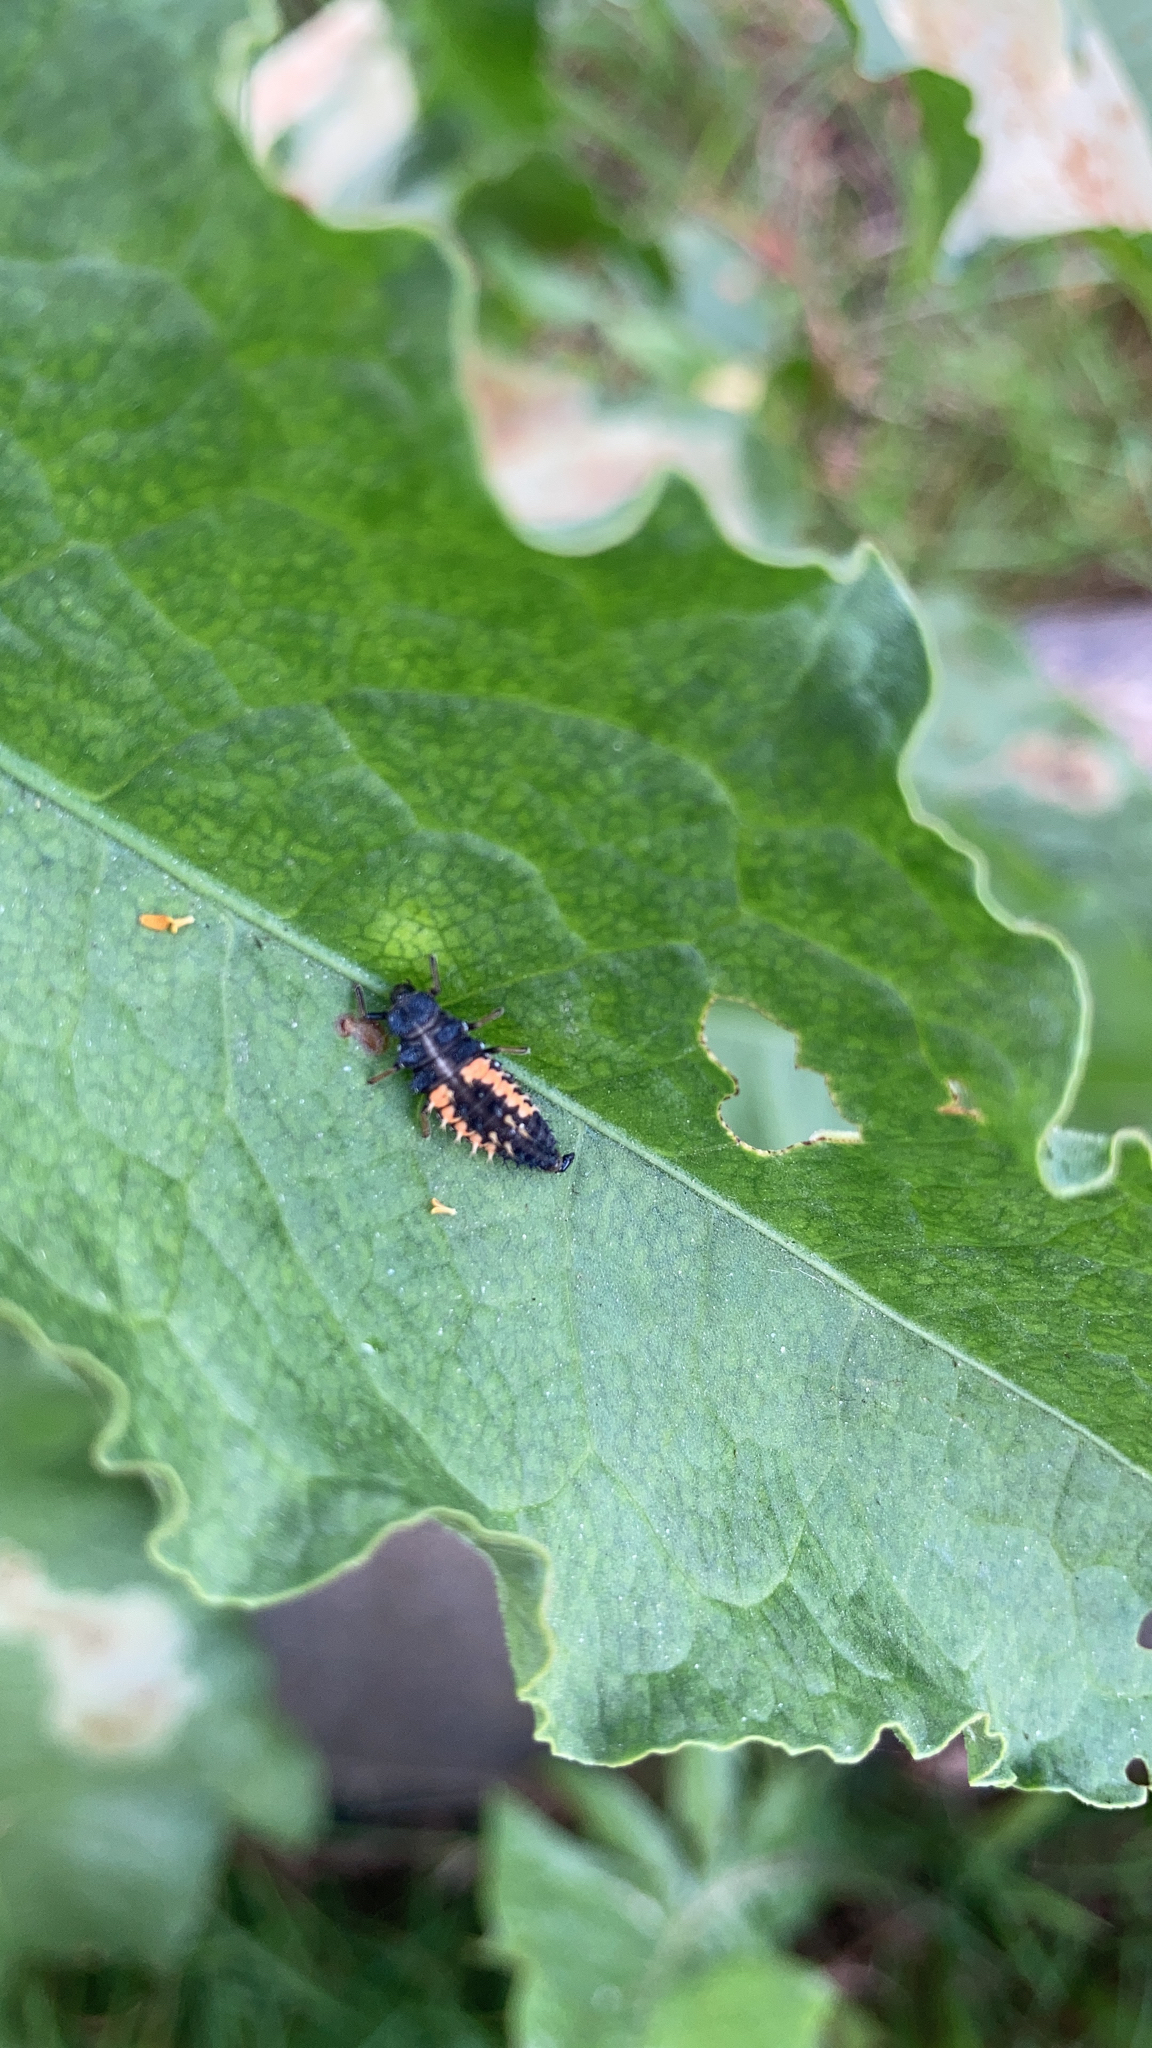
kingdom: Animalia
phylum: Arthropoda
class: Insecta
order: Coleoptera
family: Coccinellidae
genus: Harmonia
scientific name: Harmonia axyridis
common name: Harlequin ladybird
